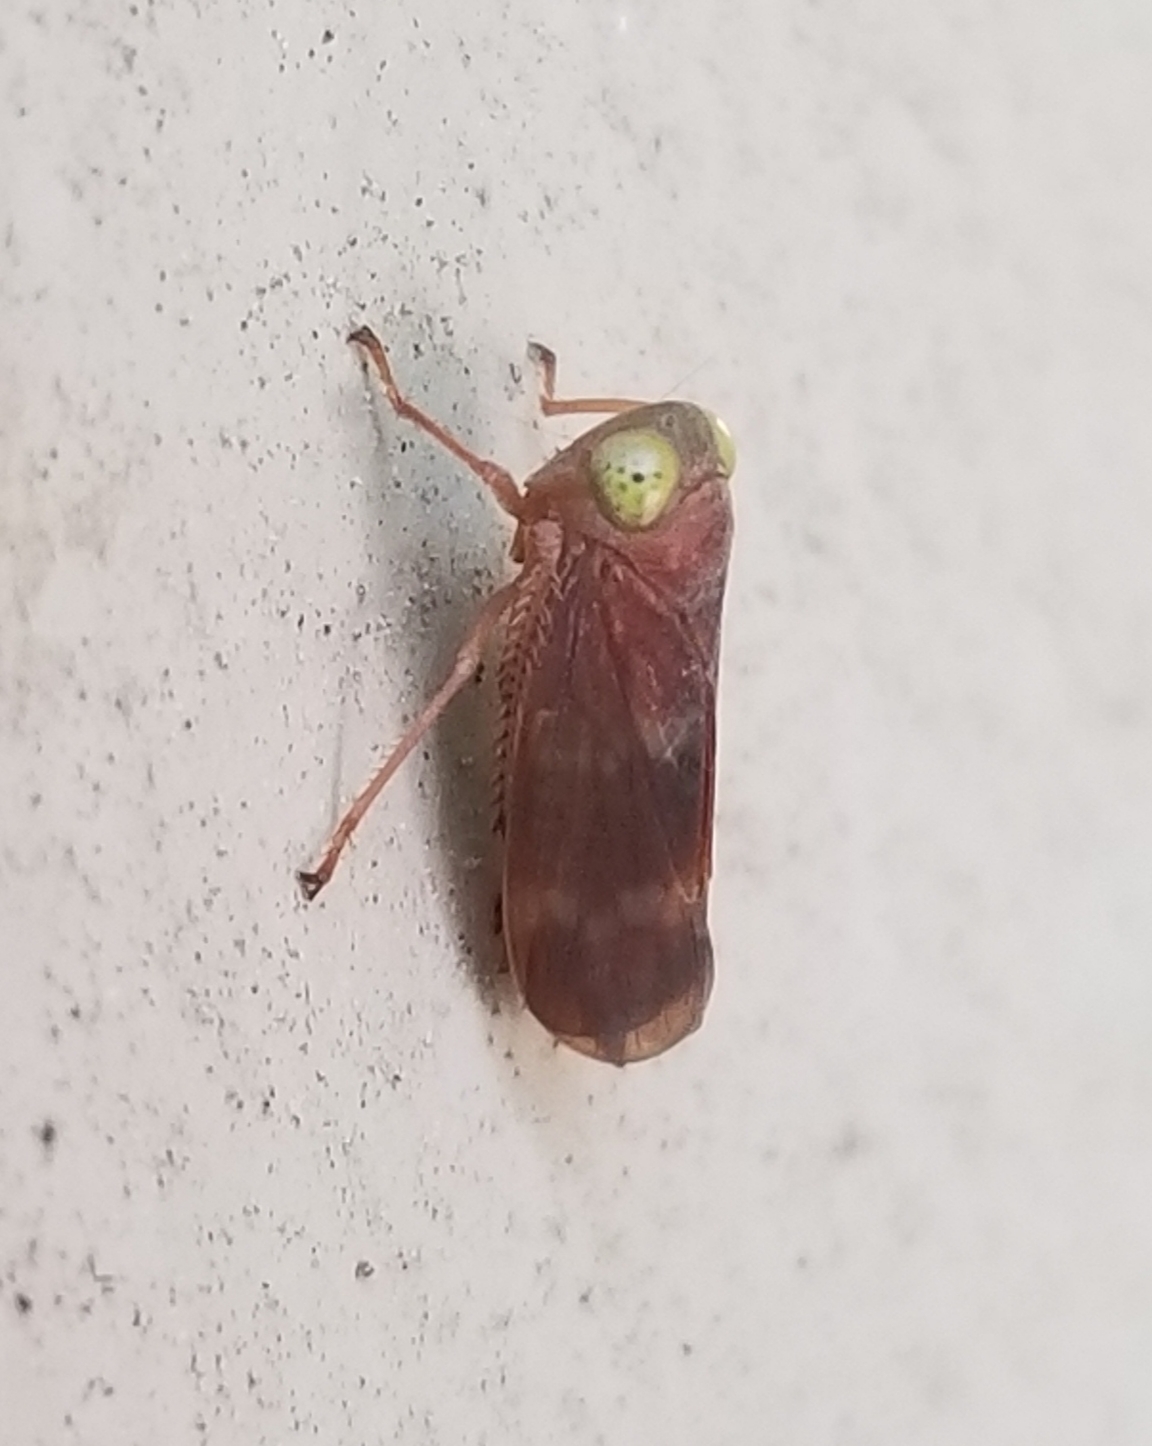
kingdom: Animalia
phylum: Arthropoda
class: Insecta
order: Hemiptera
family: Cicadellidae
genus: Jikradia
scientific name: Jikradia olitoria
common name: Coppery leafhopper
